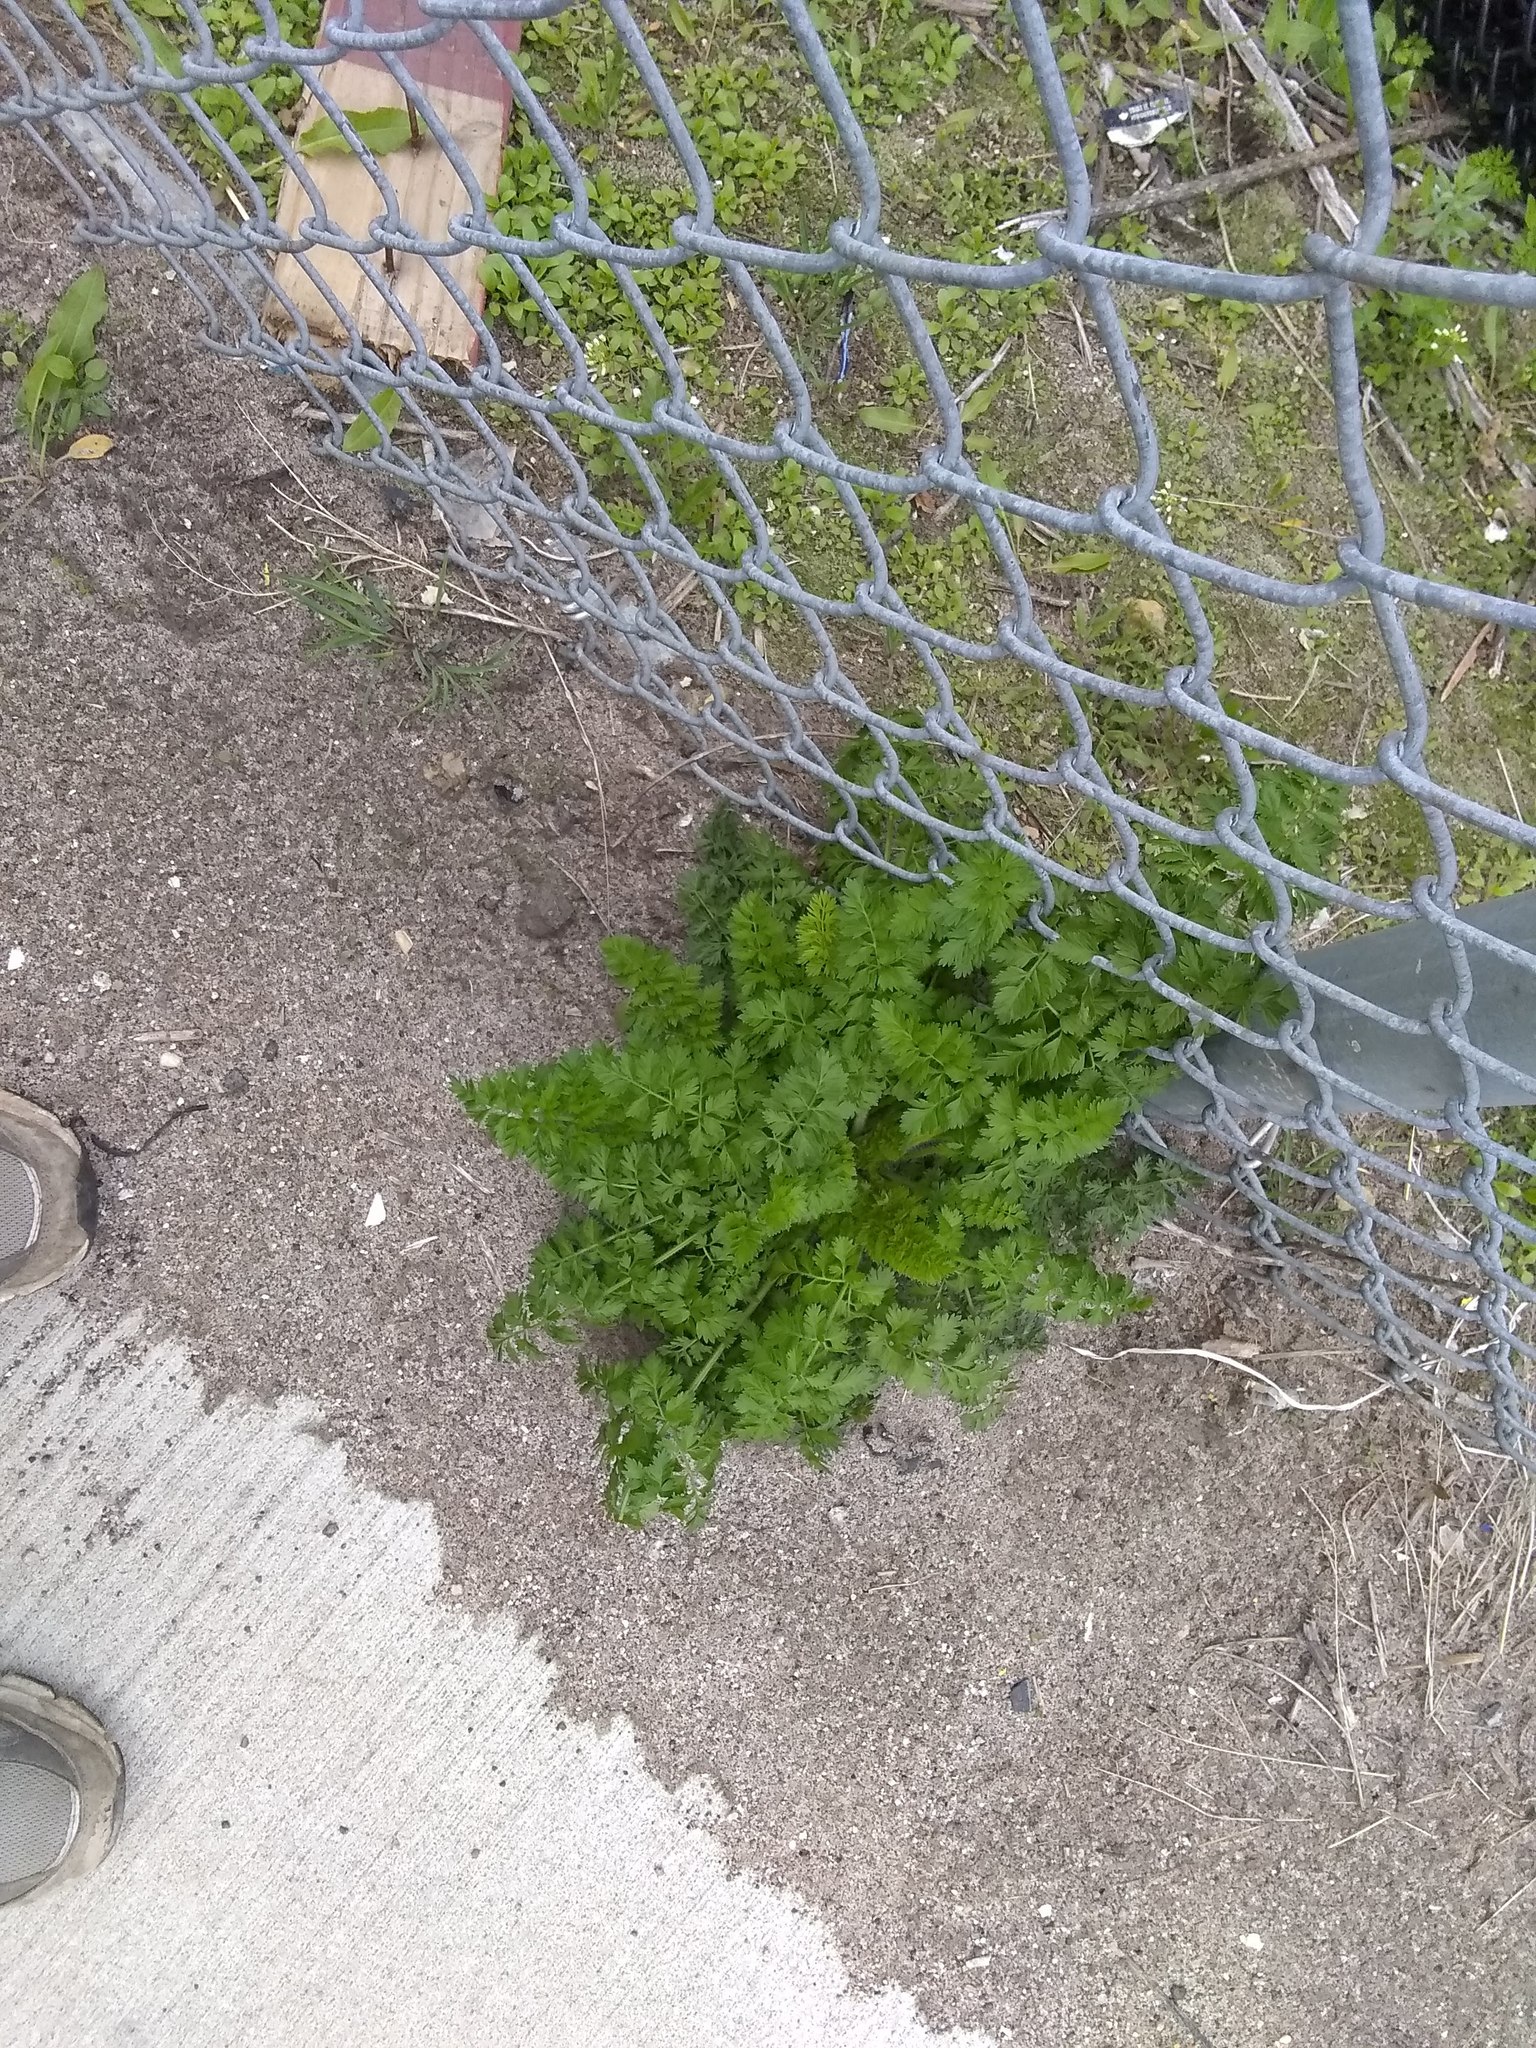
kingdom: Plantae
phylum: Tracheophyta
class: Magnoliopsida
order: Apiales
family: Apiaceae
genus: Daucus
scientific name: Daucus carota
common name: Wild carrot
